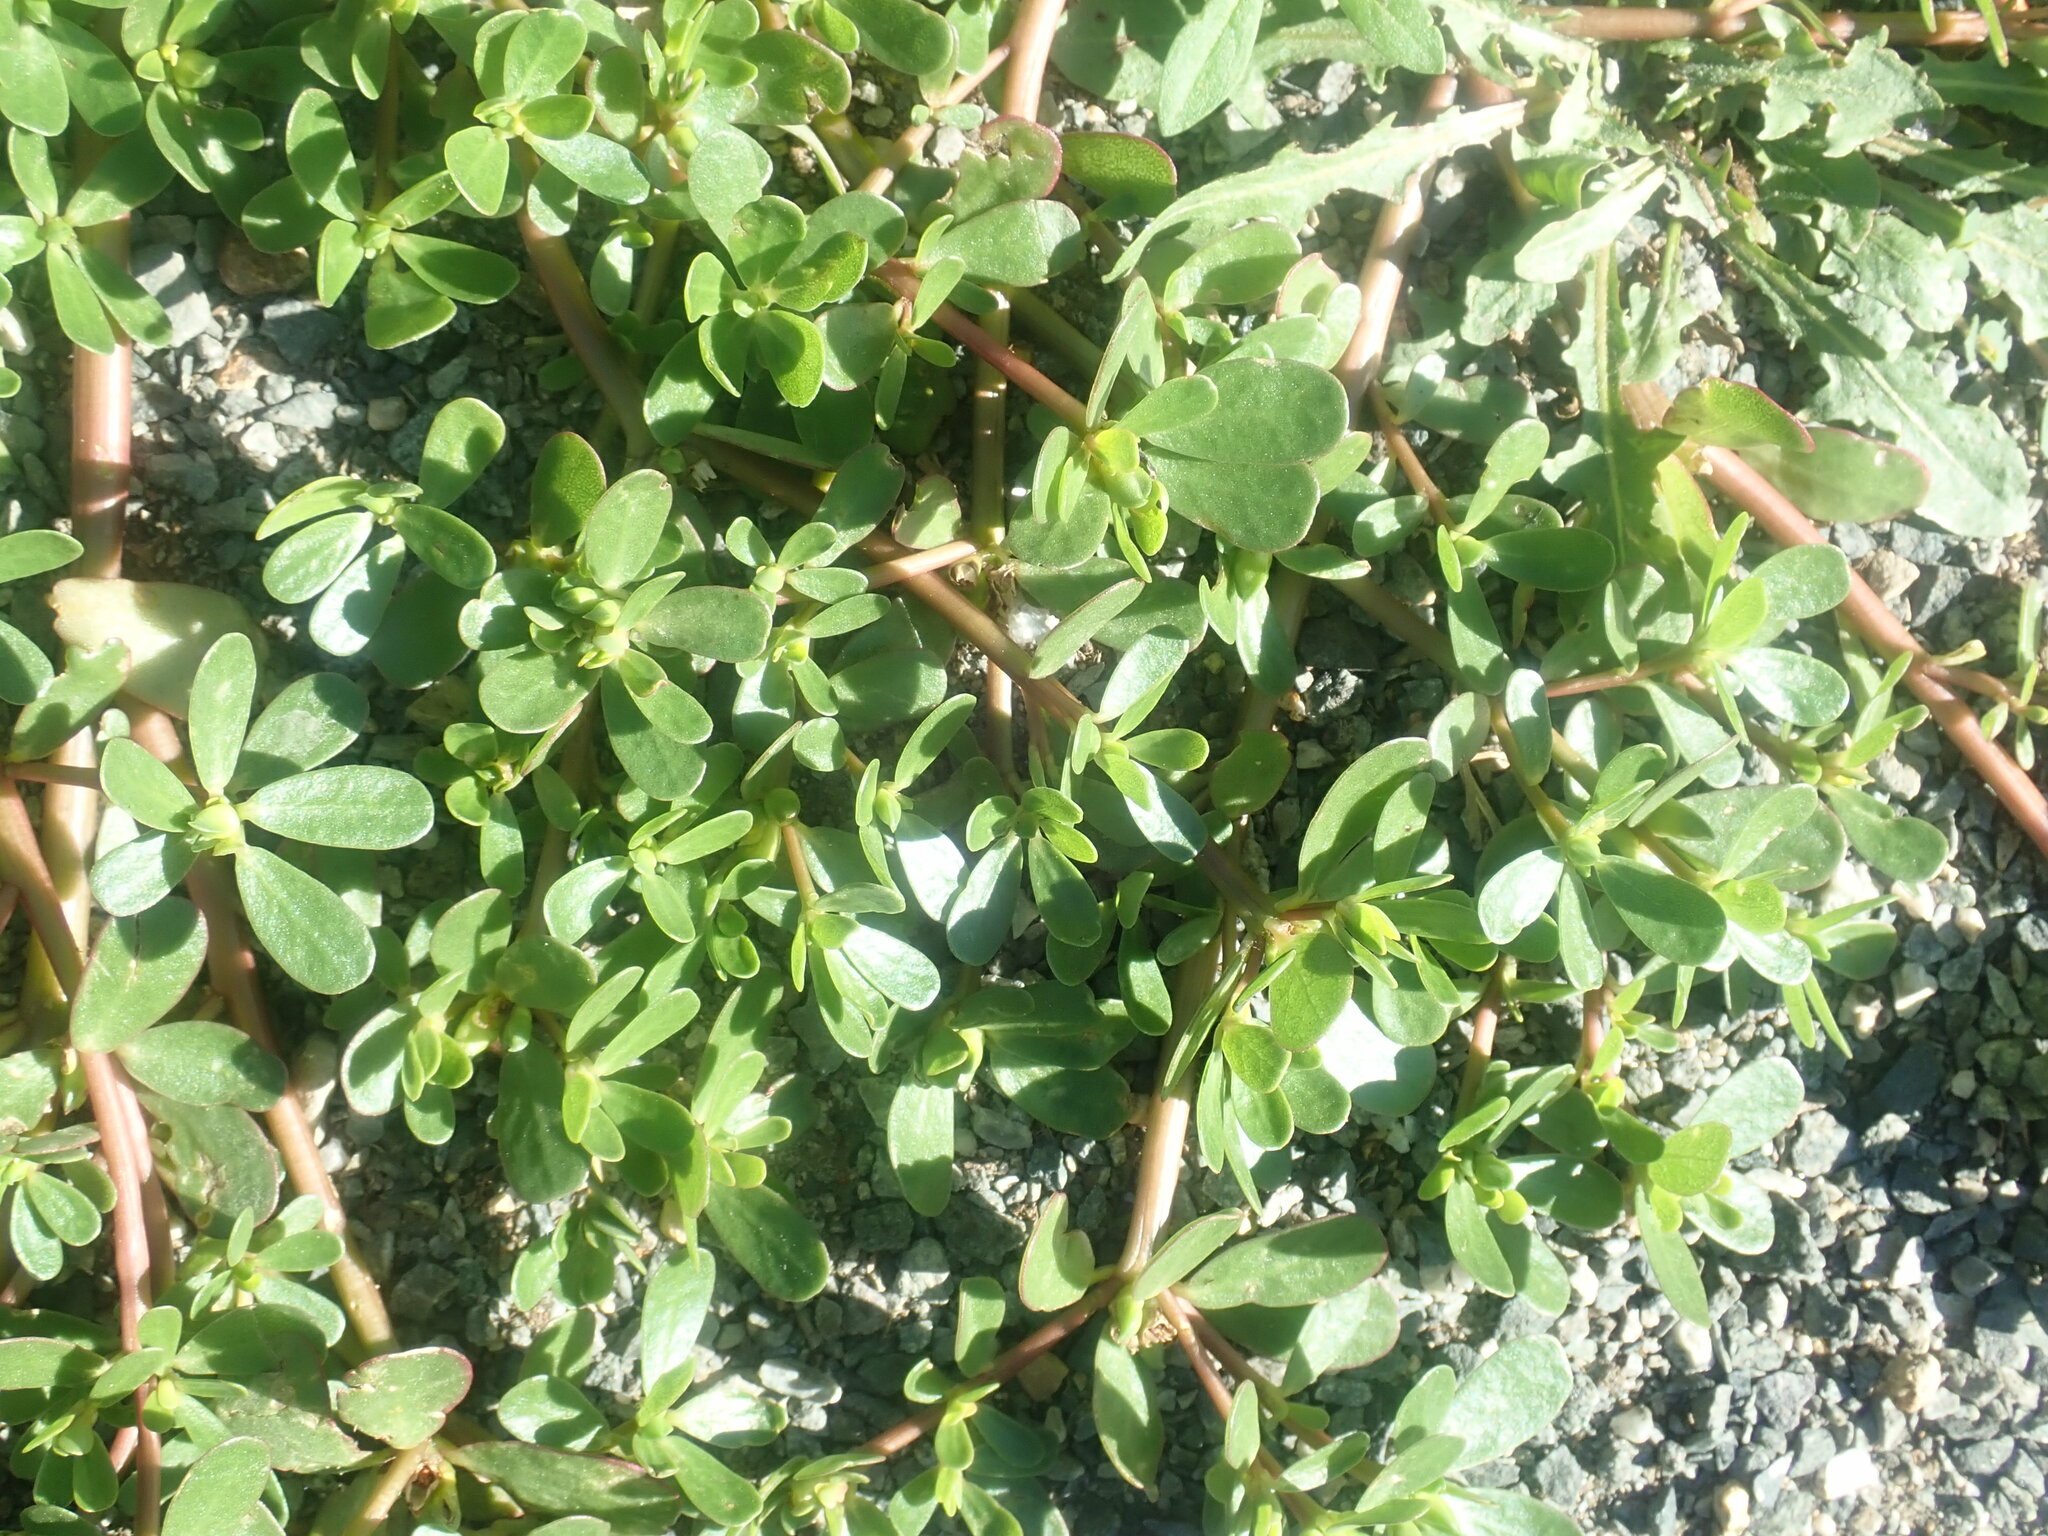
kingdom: Plantae
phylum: Tracheophyta
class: Magnoliopsida
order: Caryophyllales
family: Portulacaceae
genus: Portulaca
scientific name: Portulaca oleracea
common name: Common purslane
